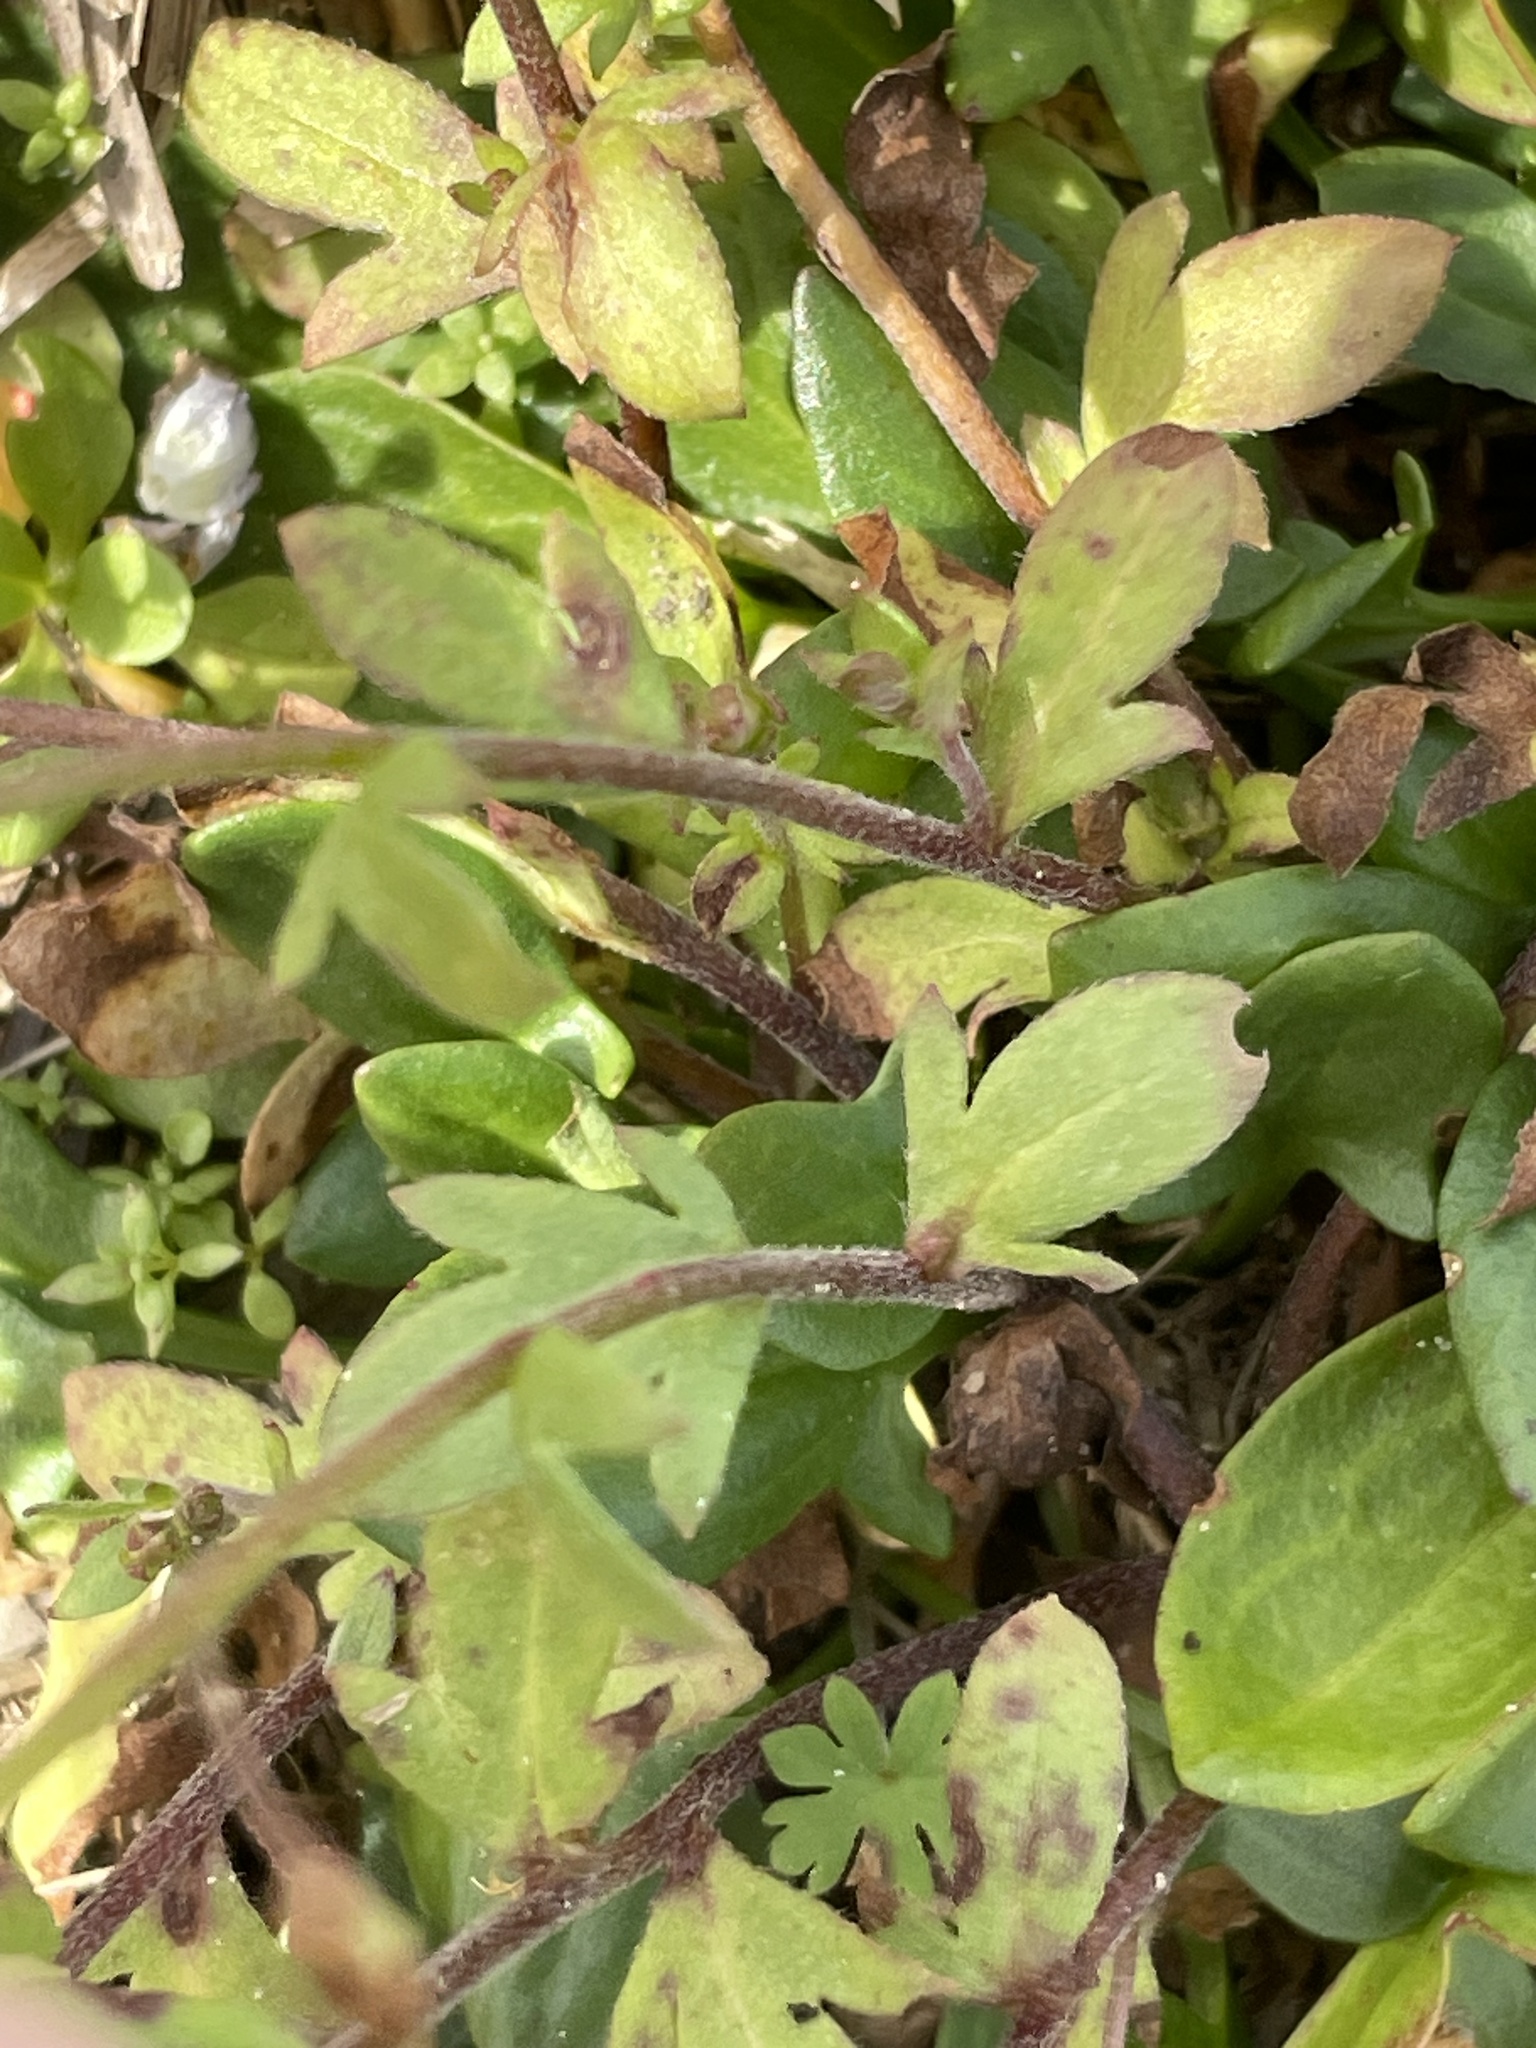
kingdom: Plantae
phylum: Tracheophyta
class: Magnoliopsida
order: Boraginales
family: Hydrophyllaceae
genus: Phacelia
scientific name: Phacelia dubia
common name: Appalachian phacelia
